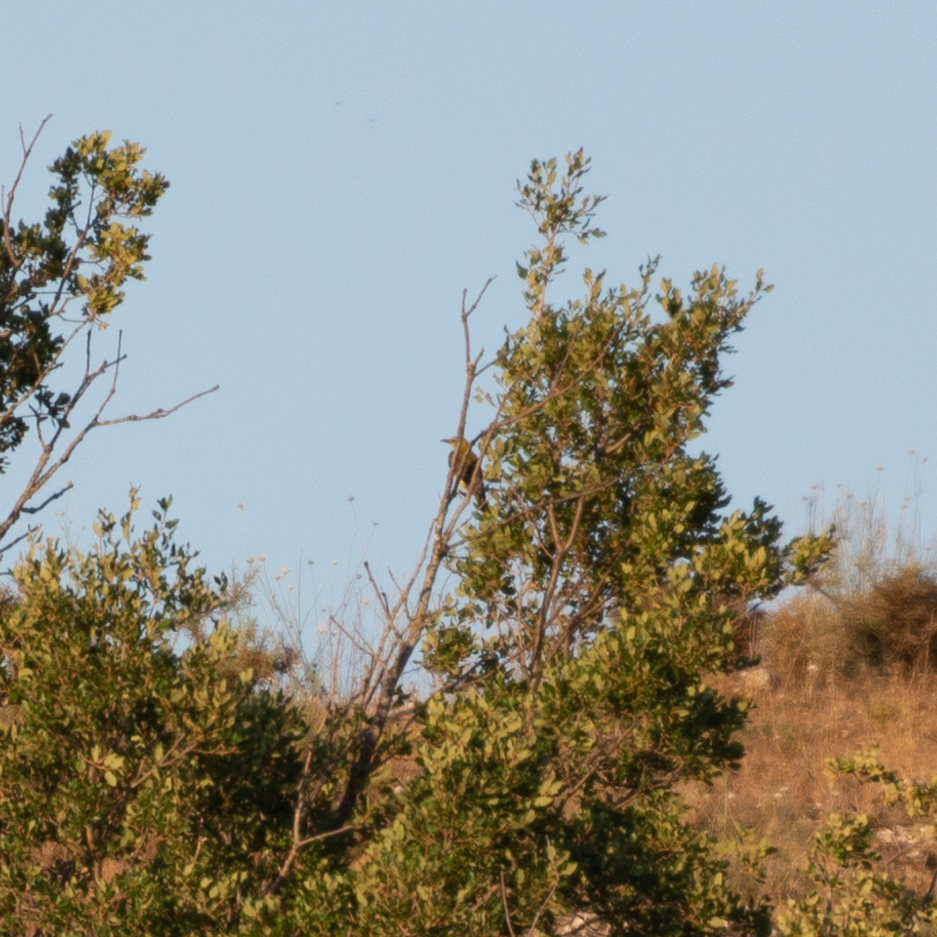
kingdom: Animalia
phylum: Chordata
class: Aves
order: Passeriformes
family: Oriolidae
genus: Oriolus
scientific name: Oriolus oriolus
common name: Eurasian golden oriole
